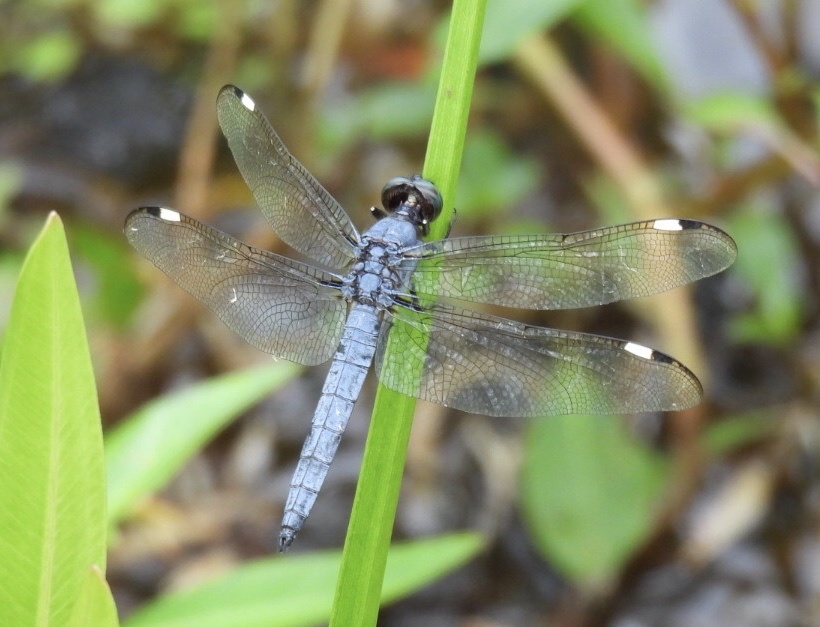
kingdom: Animalia
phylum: Arthropoda
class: Insecta
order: Odonata
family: Libellulidae
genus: Libellula
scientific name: Libellula cyanea
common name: Spangled skimmer
